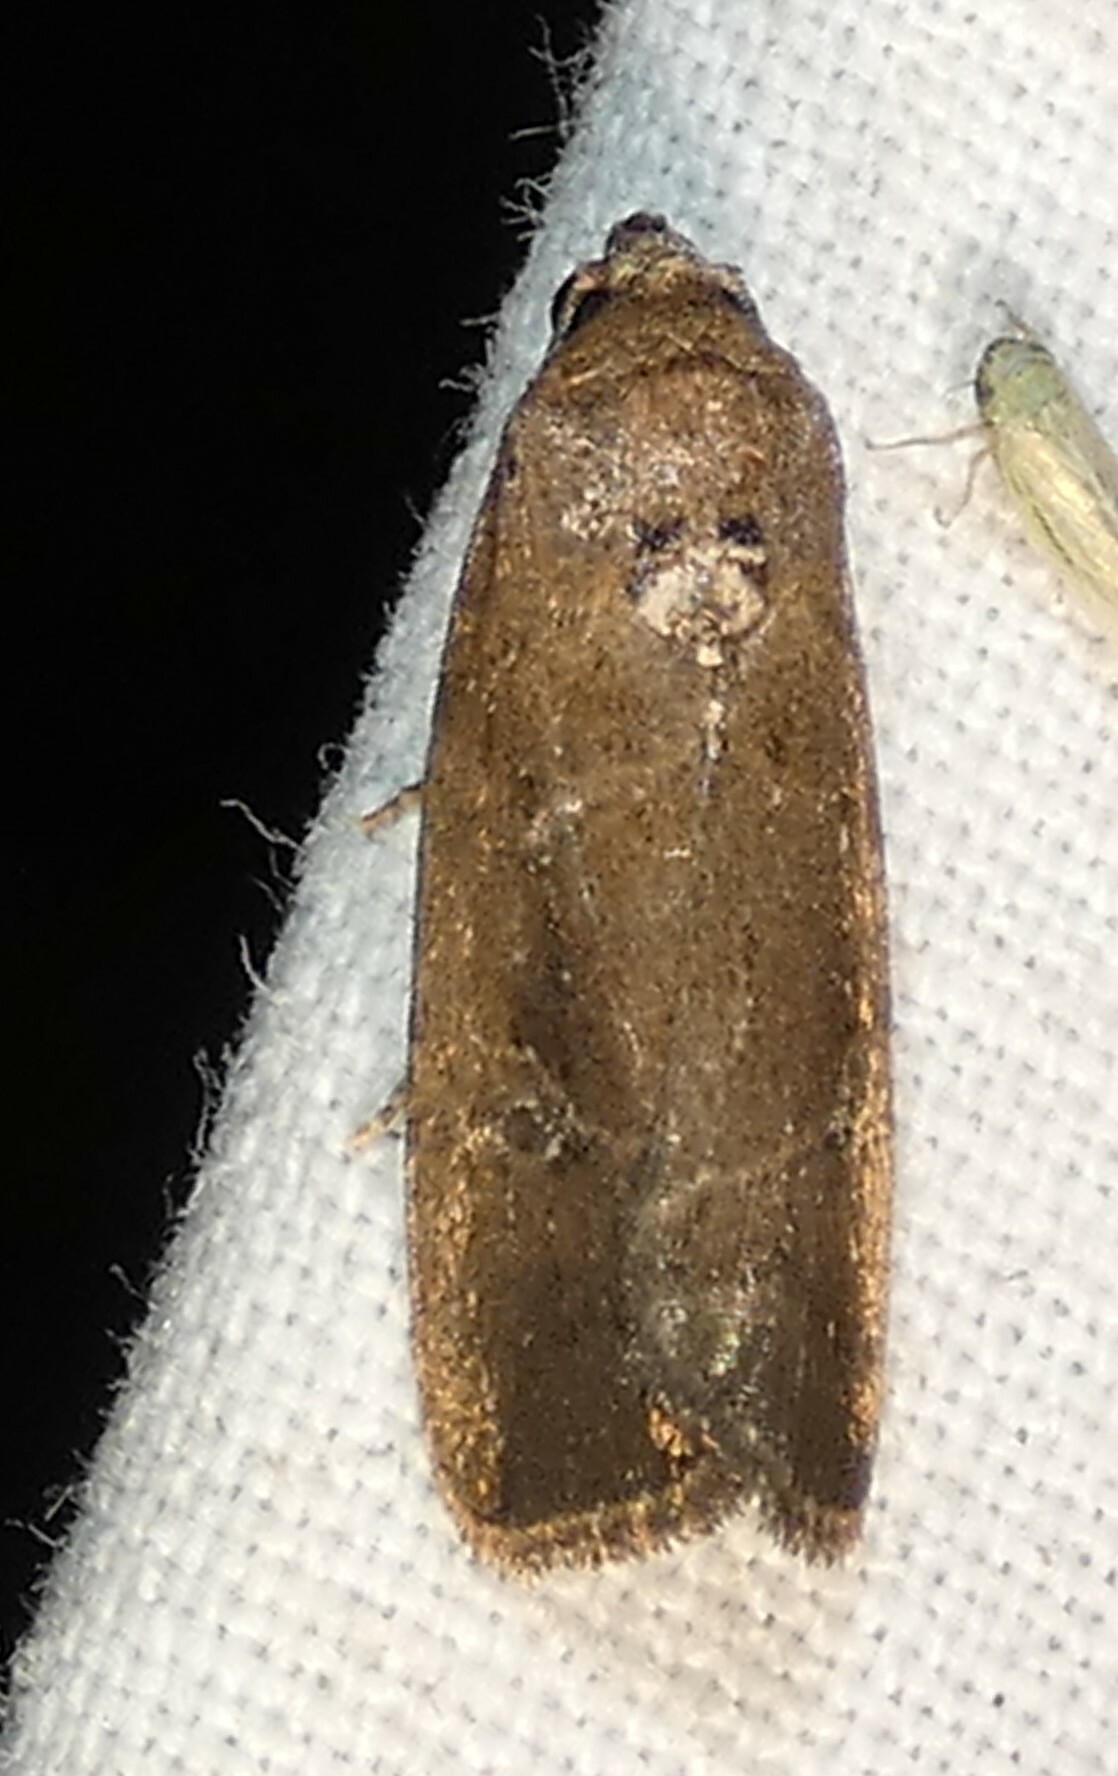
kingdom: Animalia
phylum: Arthropoda
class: Insecta
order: Lepidoptera
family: Noctuidae
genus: Elaphria
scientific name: Elaphria nucicolora
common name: Sugarcane midget moth
